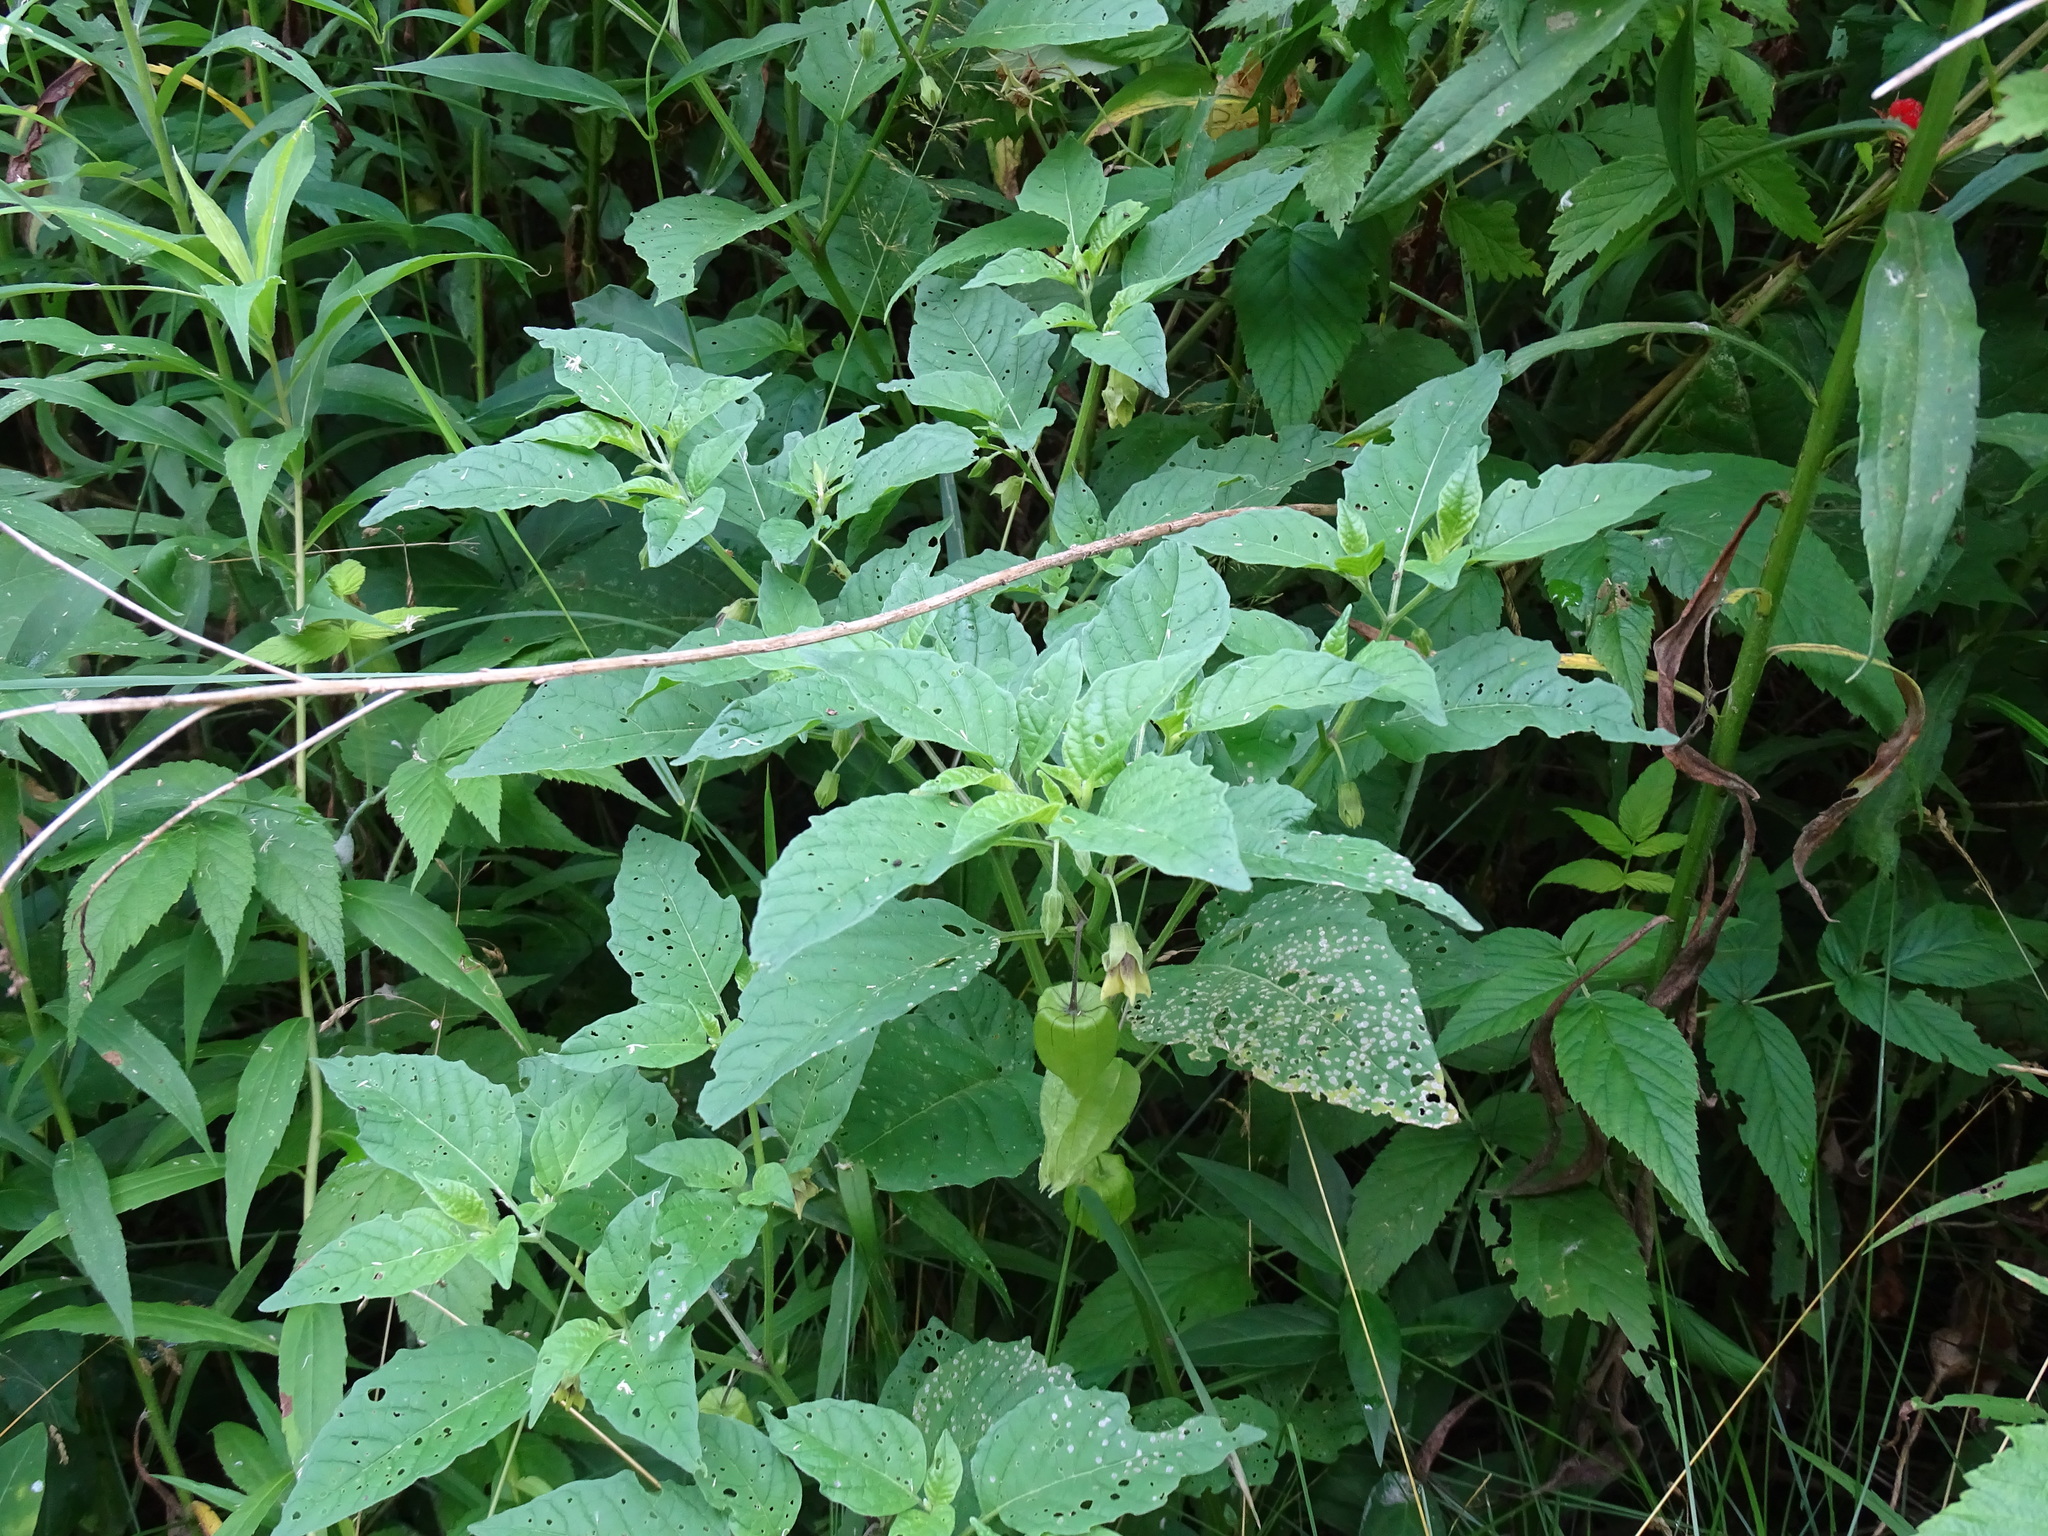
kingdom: Plantae
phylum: Tracheophyta
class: Magnoliopsida
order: Solanales
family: Solanaceae
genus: Physalis
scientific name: Physalis longifolia
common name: Common ground-cherry
